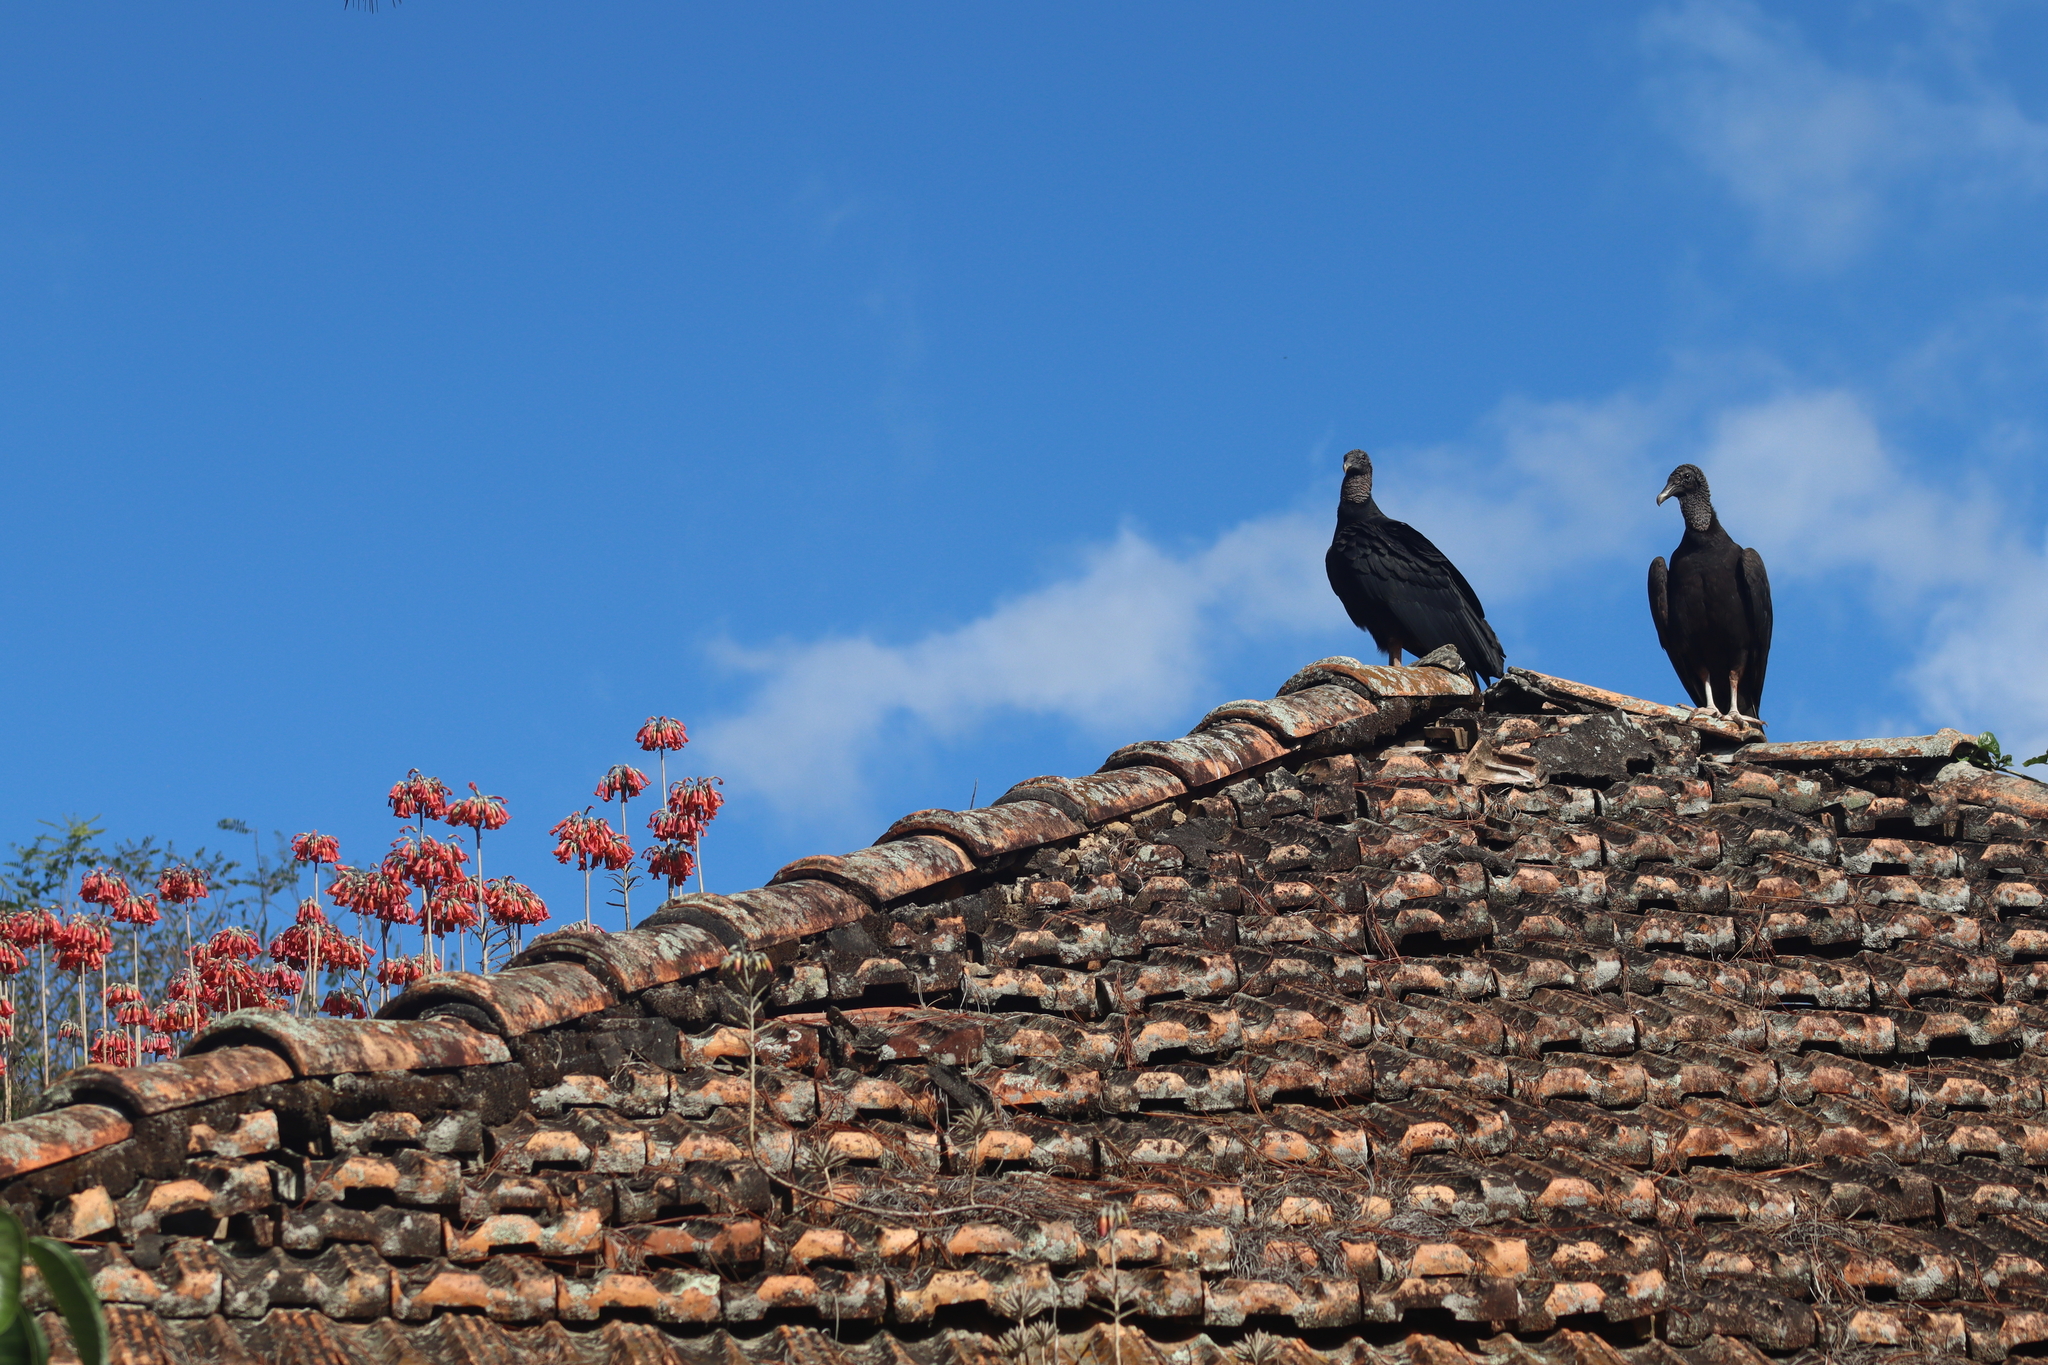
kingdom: Animalia
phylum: Chordata
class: Aves
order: Accipitriformes
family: Cathartidae
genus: Coragyps
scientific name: Coragyps atratus
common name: Black vulture
